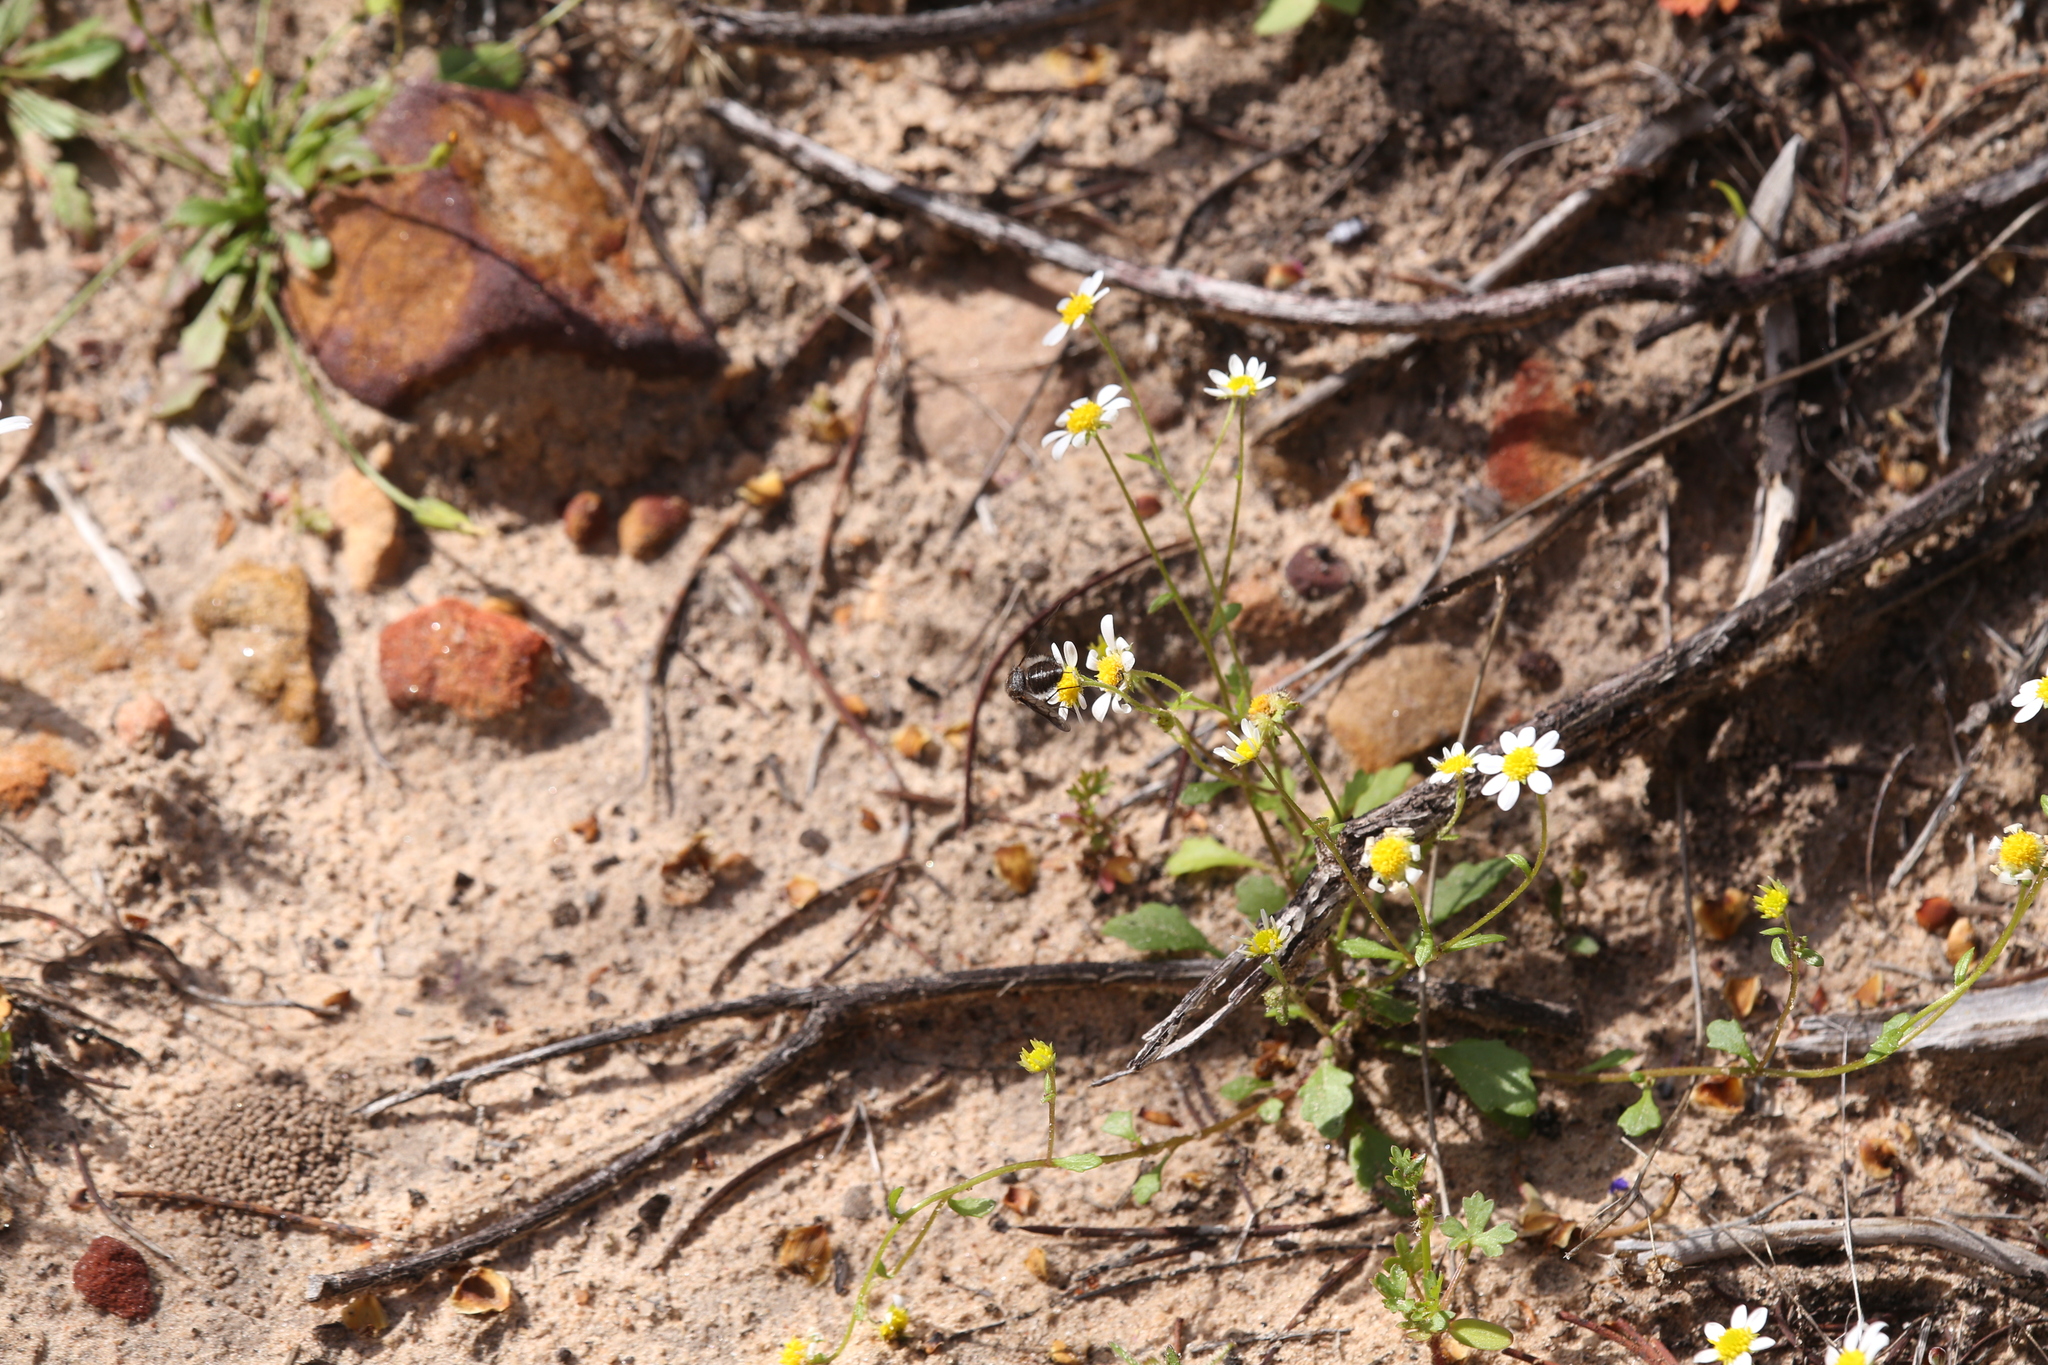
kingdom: Plantae
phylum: Tracheophyta
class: Magnoliopsida
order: Asterales
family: Asteraceae
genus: Calotis
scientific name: Calotis multicaulis
